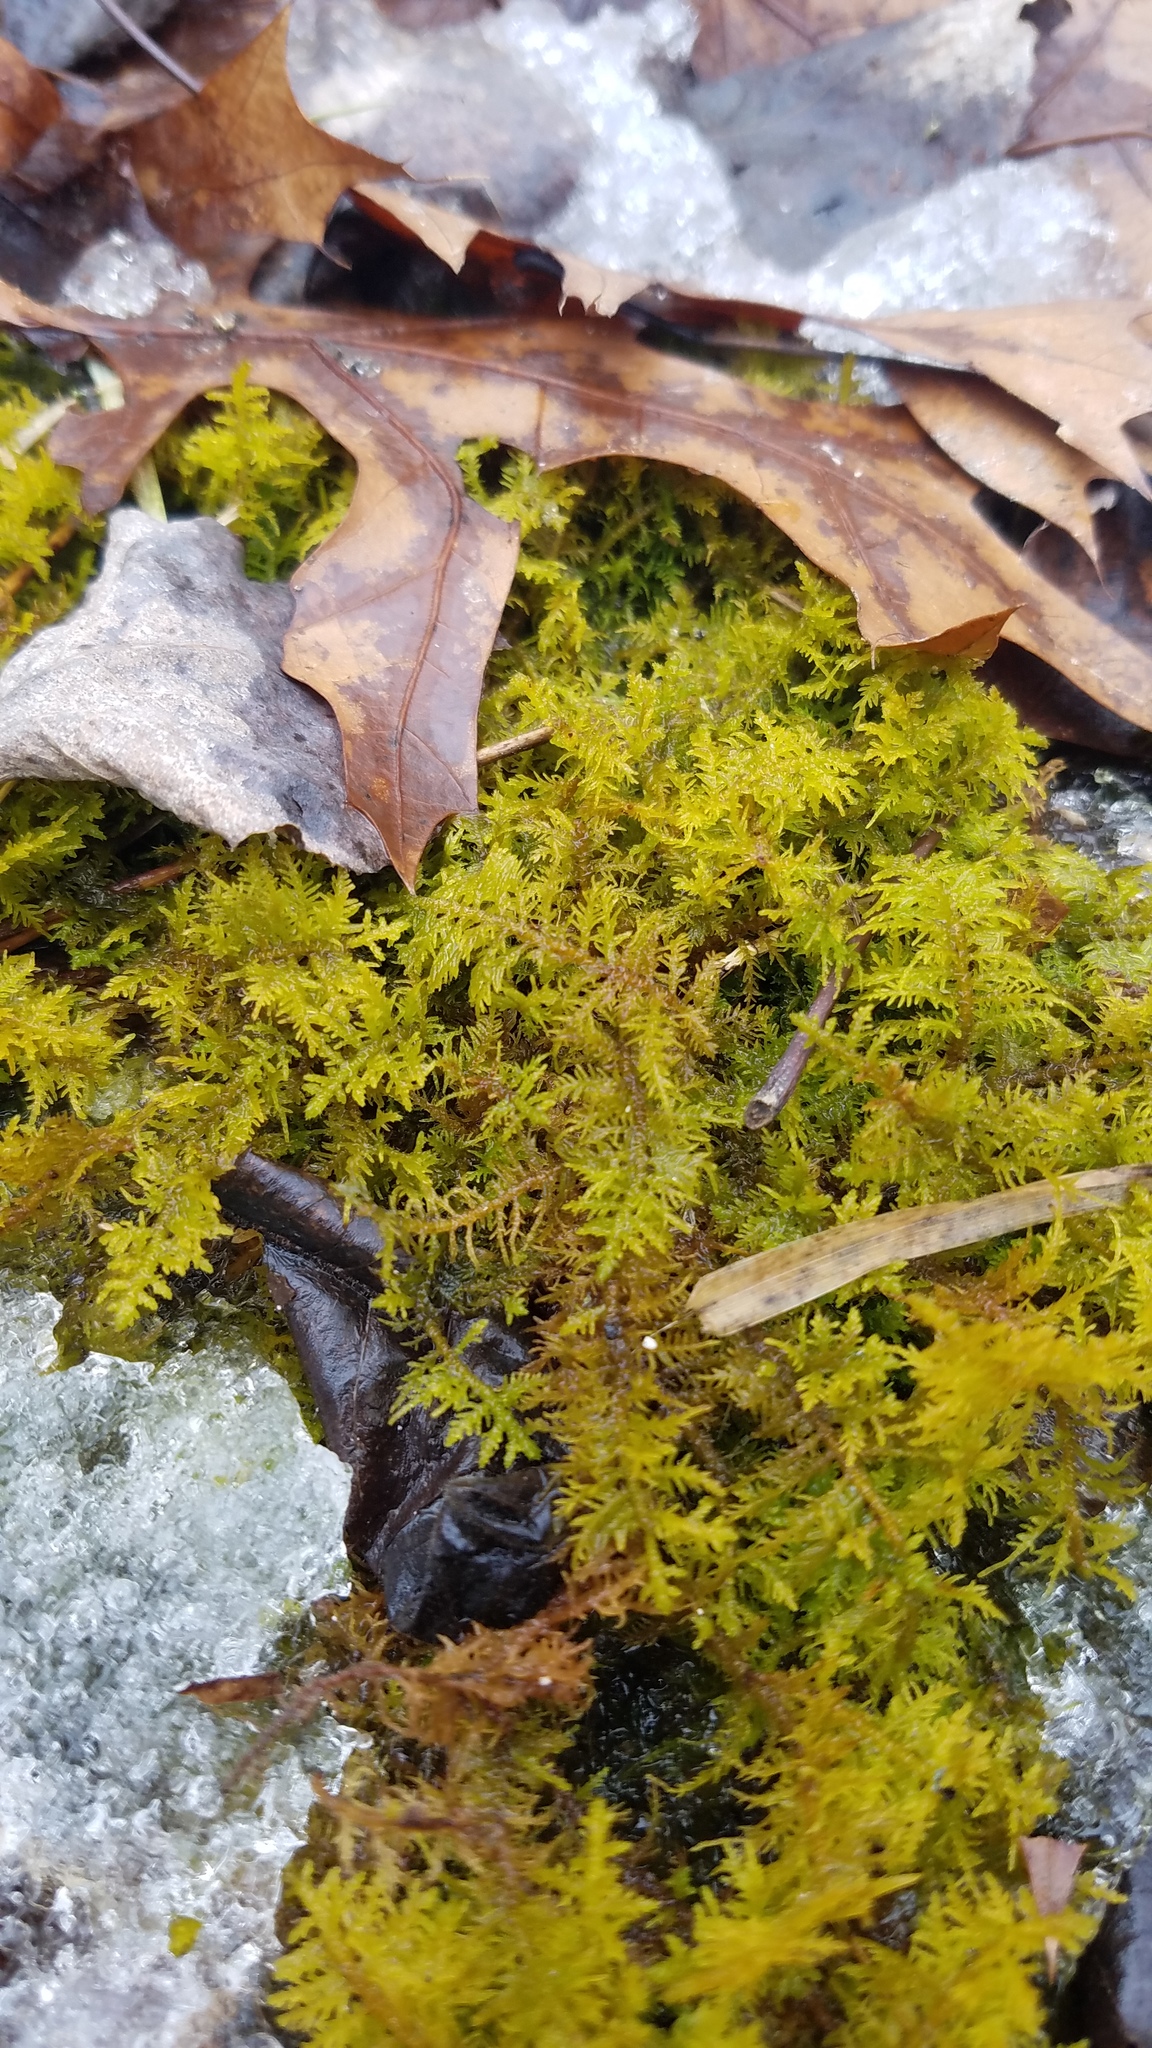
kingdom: Plantae
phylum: Bryophyta
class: Bryopsida
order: Hypnales
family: Thuidiaceae
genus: Thuidium
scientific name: Thuidium delicatulum
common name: Delicate fern moss
